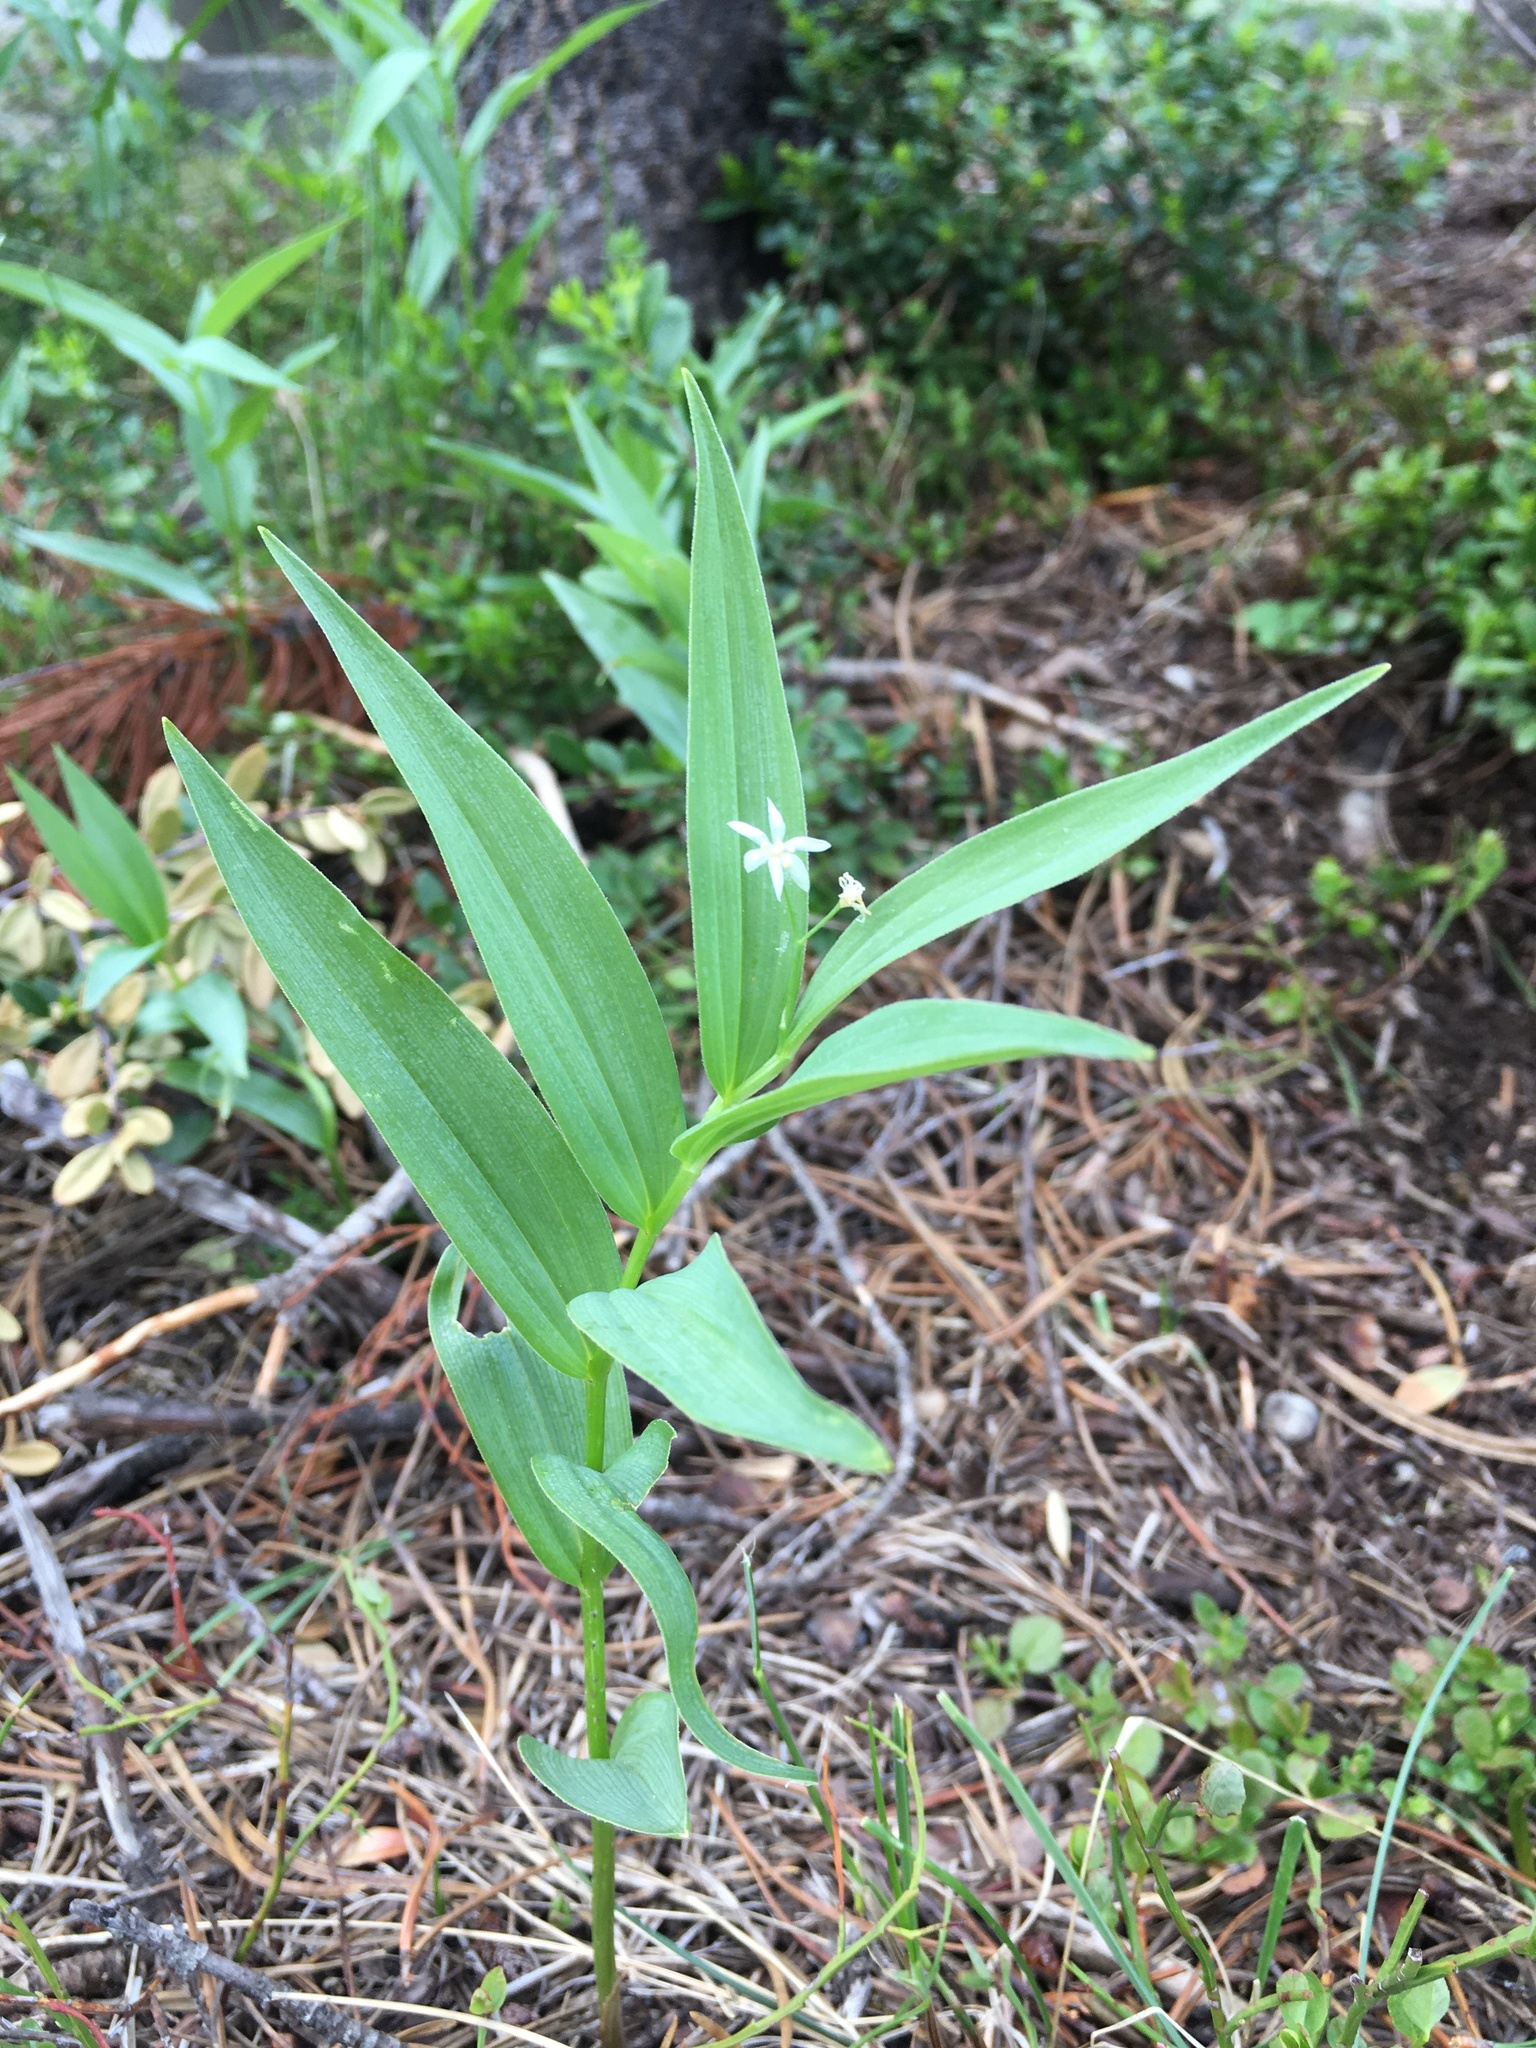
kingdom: Plantae
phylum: Tracheophyta
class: Liliopsida
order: Asparagales
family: Asparagaceae
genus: Maianthemum
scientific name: Maianthemum stellatum
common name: Little false solomon's seal
